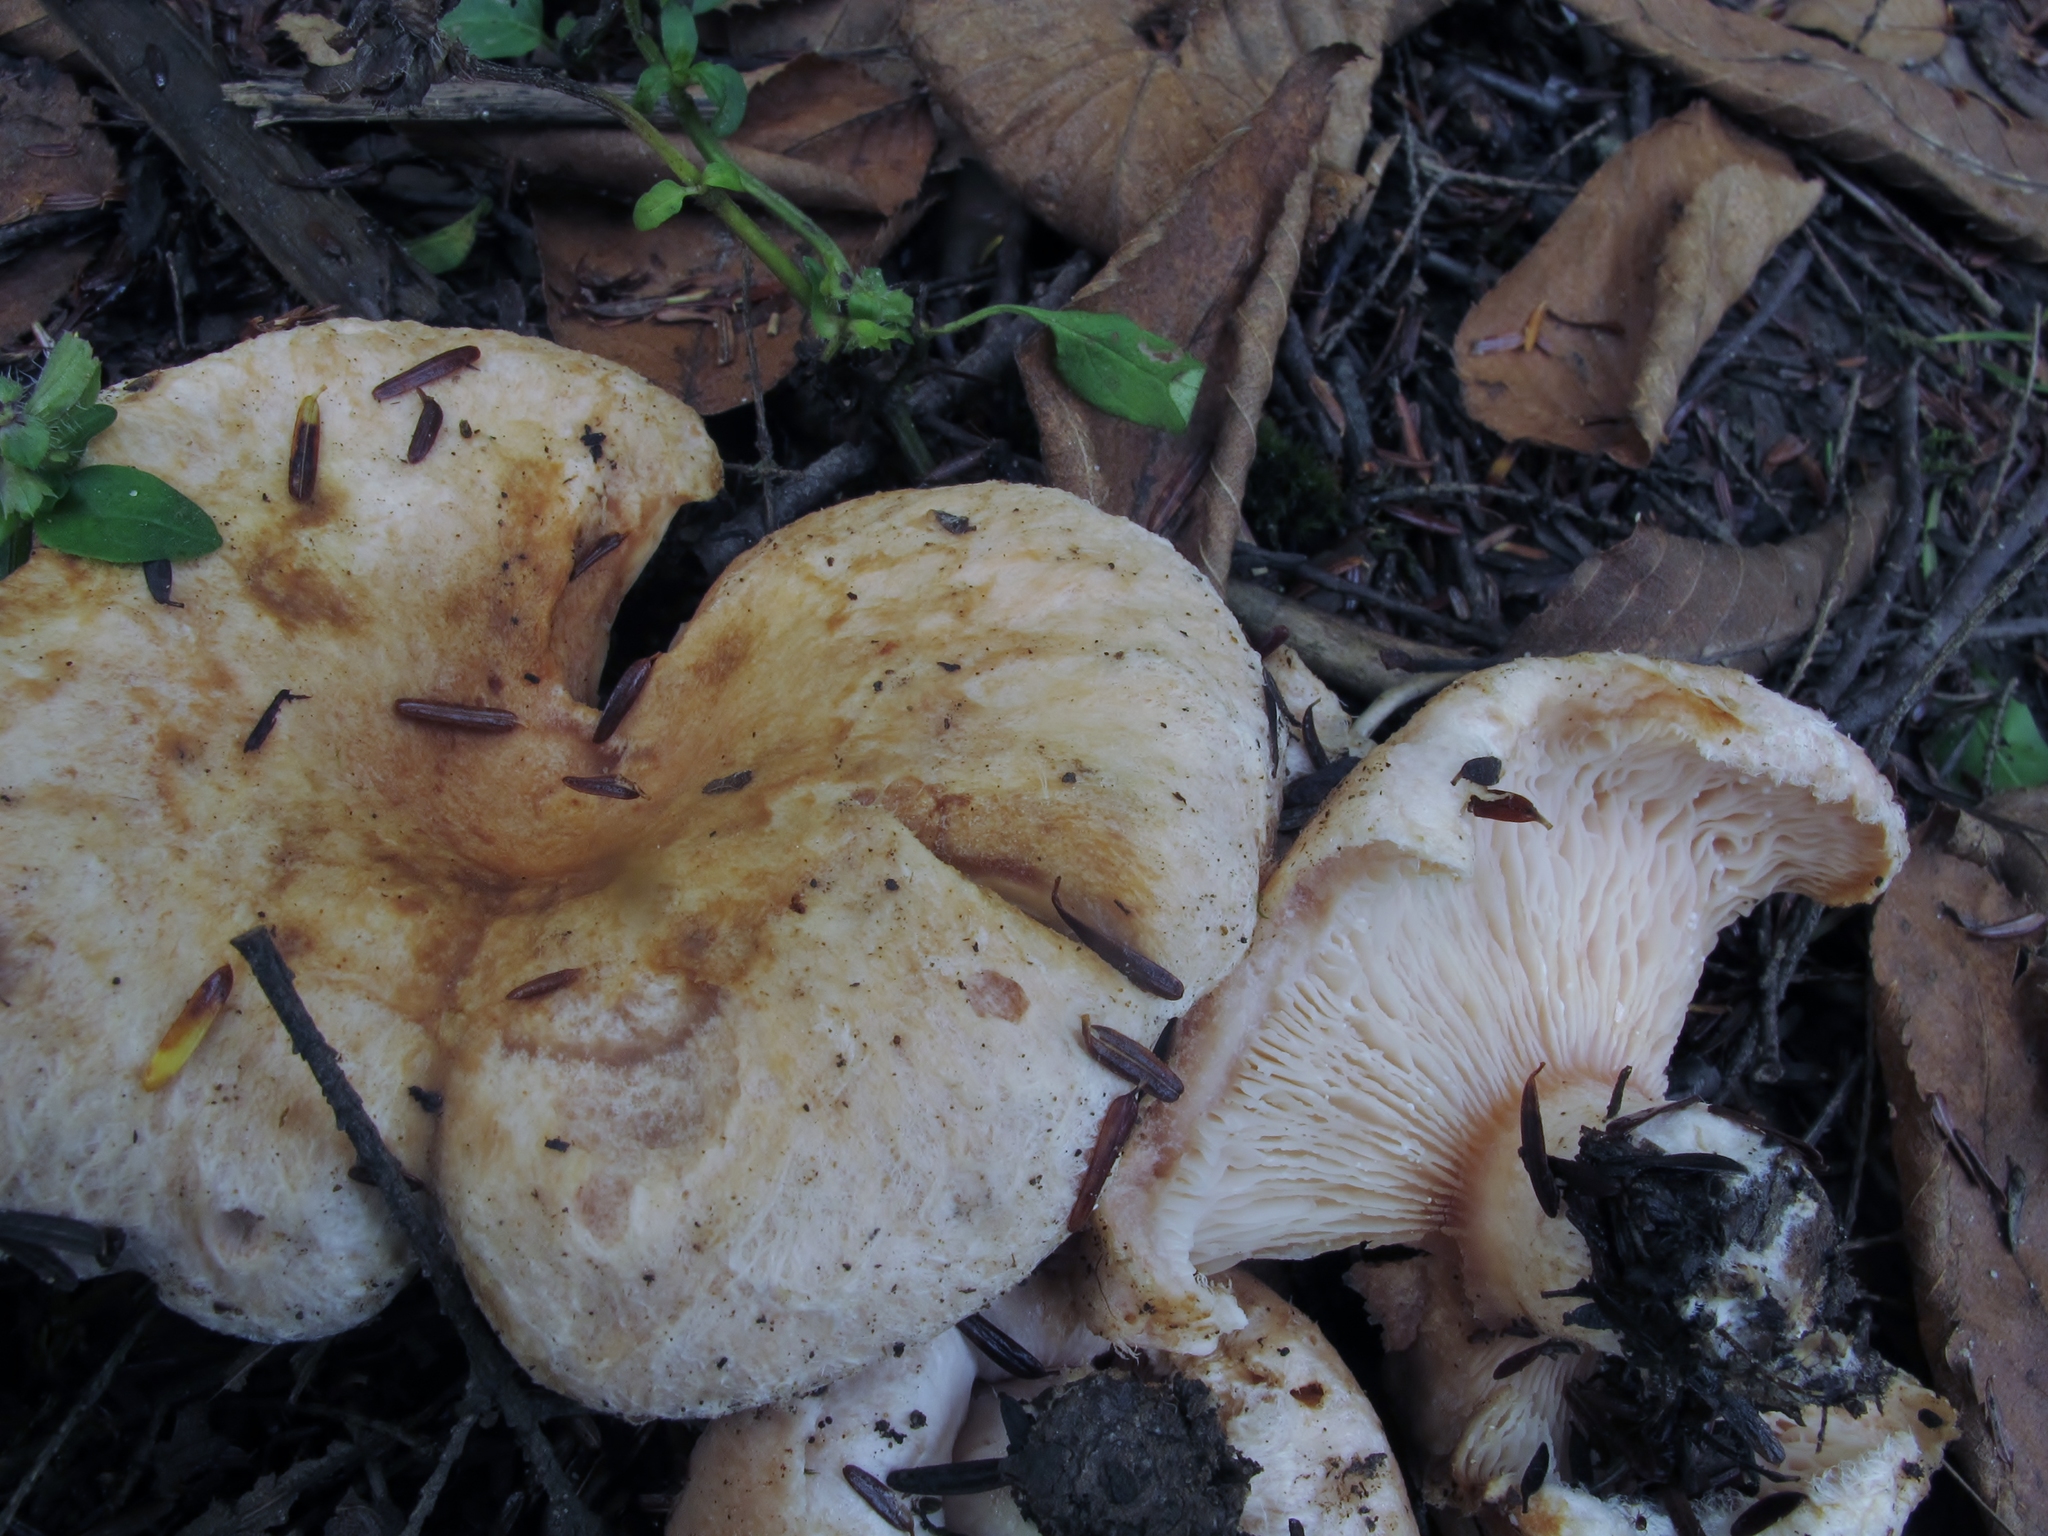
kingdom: Fungi
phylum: Basidiomycota
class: Agaricomycetes
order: Russulales
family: Russulaceae
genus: Lactarius
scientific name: Lactarius pubescens
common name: Bearded milkcap
